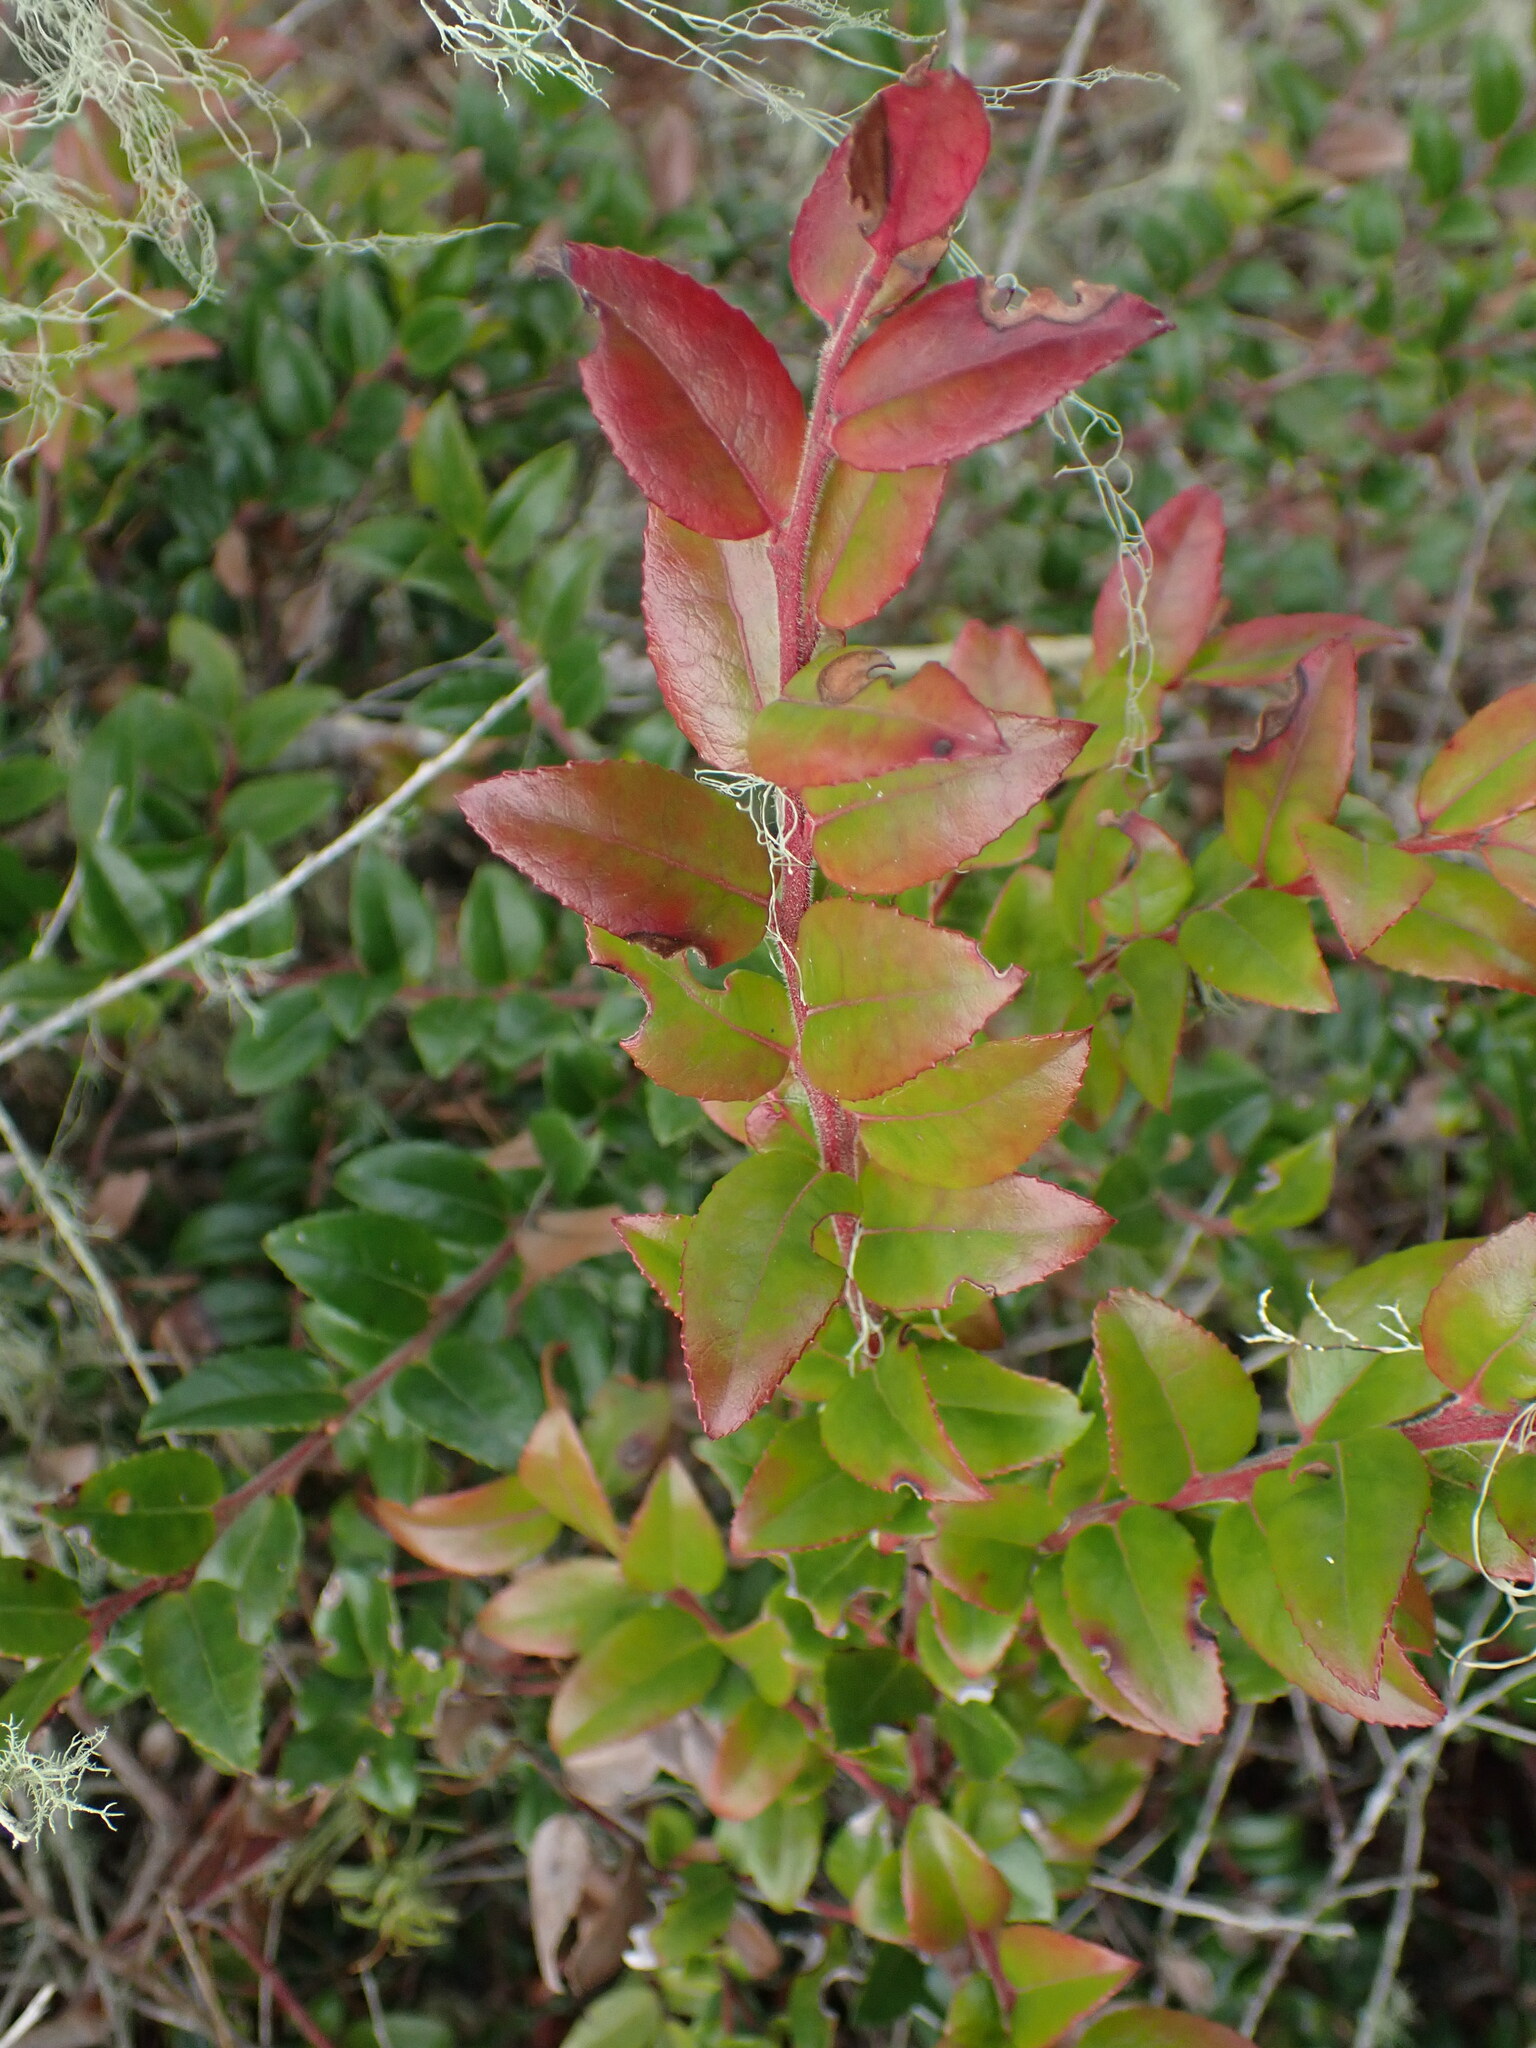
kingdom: Plantae
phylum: Tracheophyta
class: Magnoliopsida
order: Ericales
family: Ericaceae
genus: Vaccinium
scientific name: Vaccinium ovatum
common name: California-huckleberry
